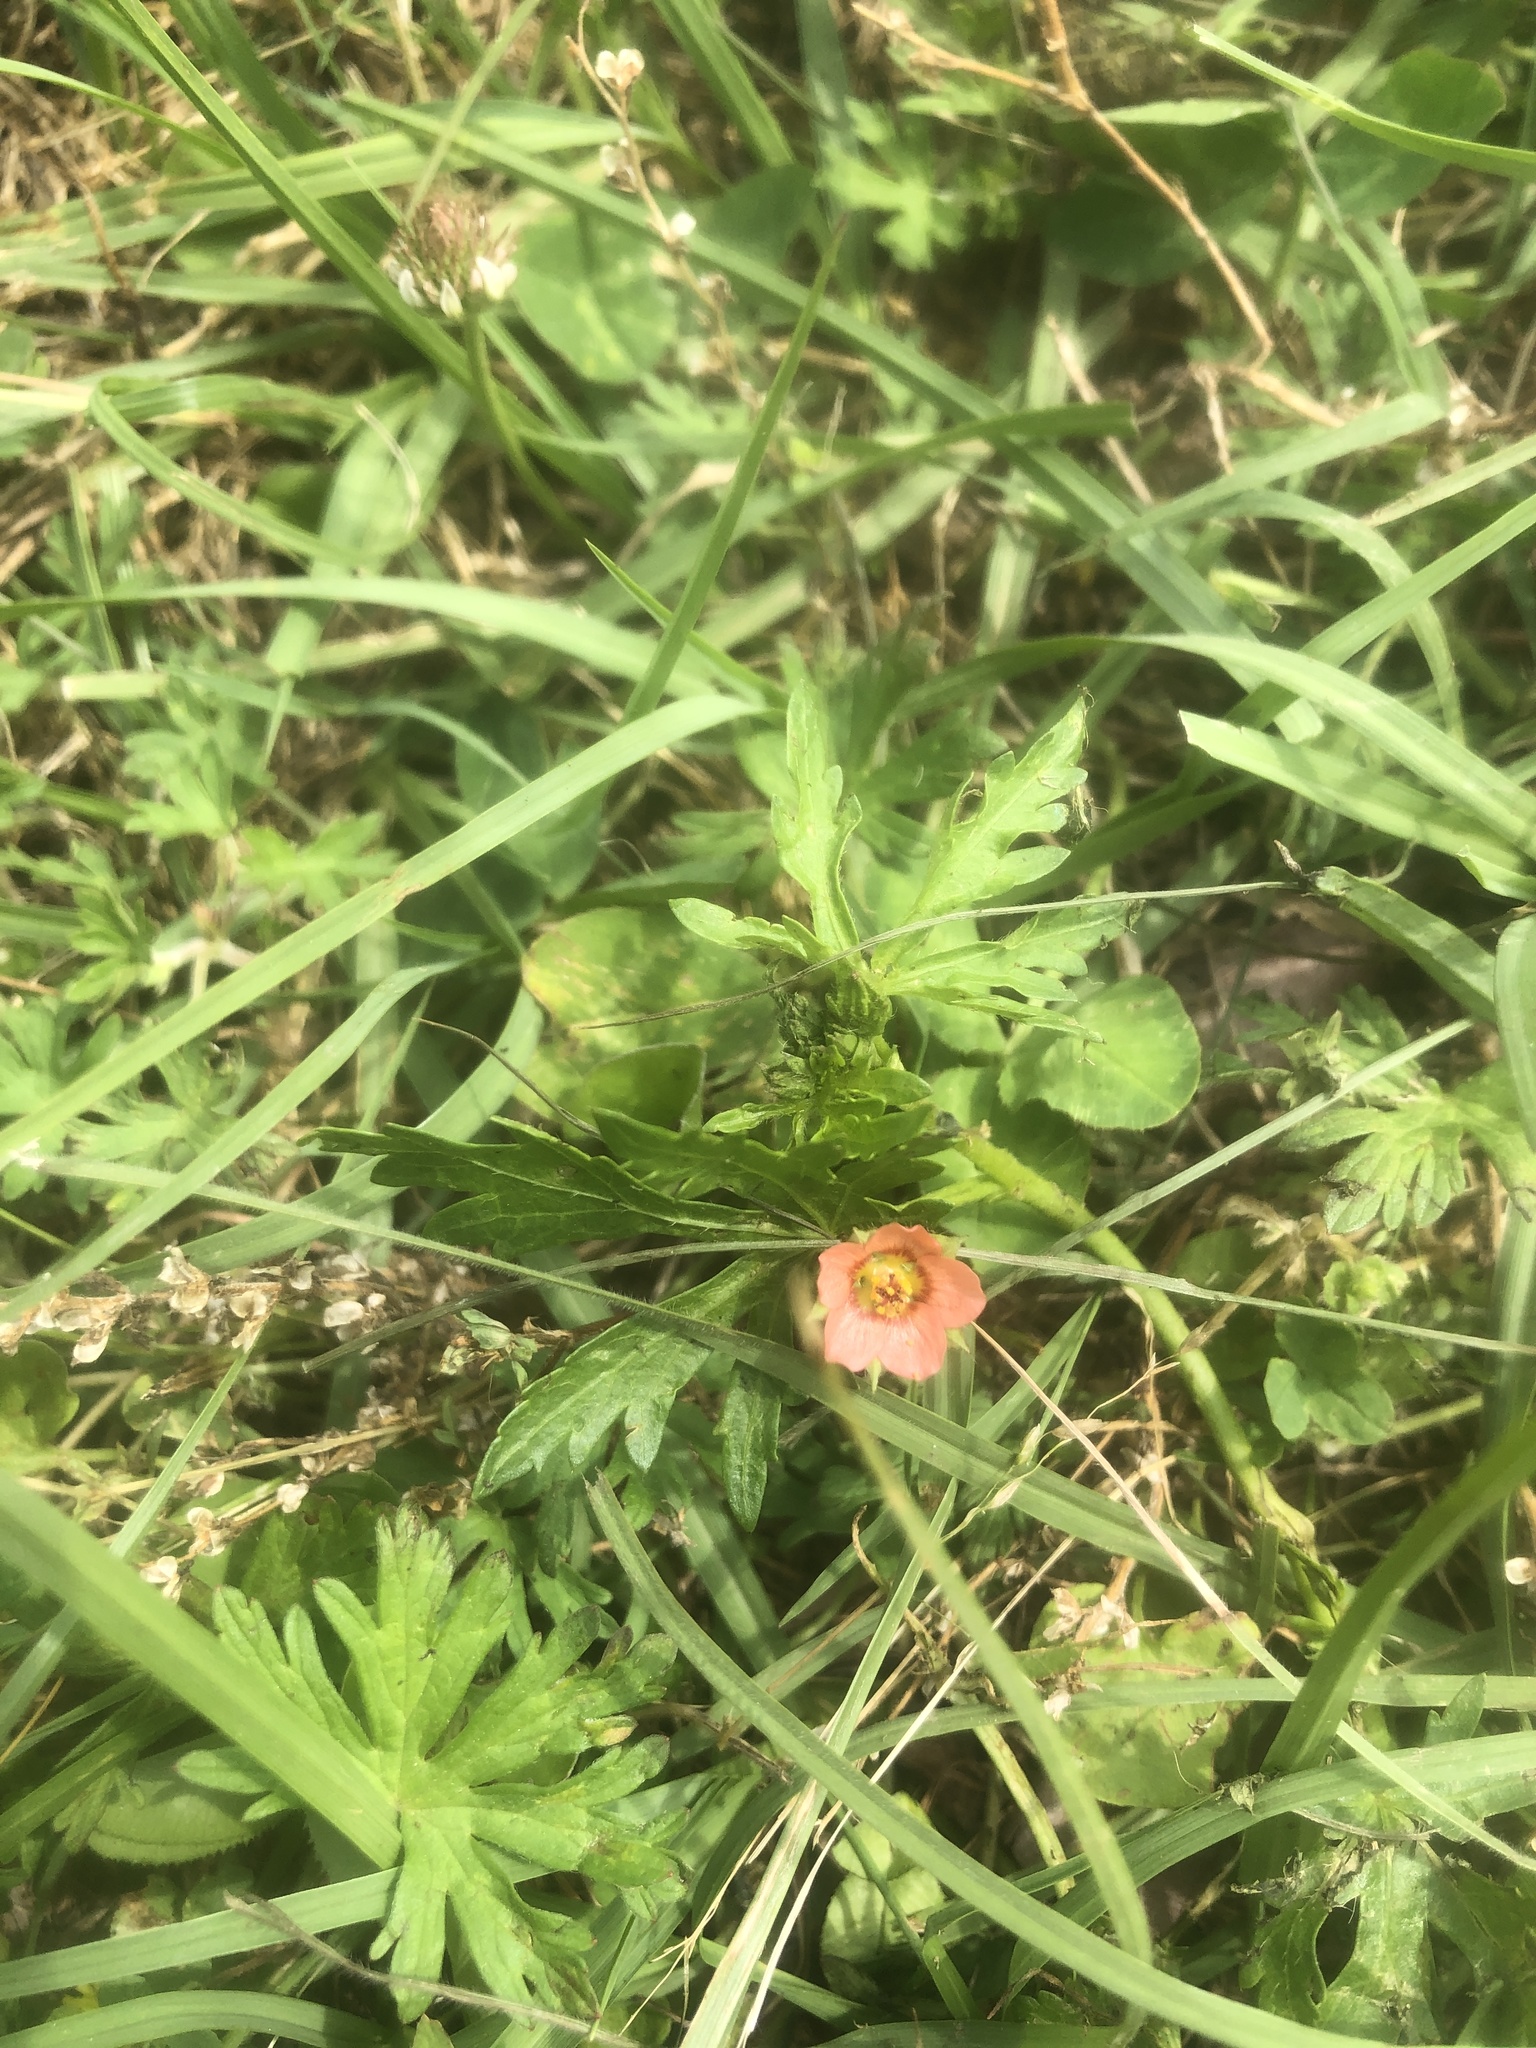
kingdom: Plantae
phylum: Tracheophyta
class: Magnoliopsida
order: Malvales
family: Malvaceae
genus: Modiola
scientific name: Modiola caroliniana
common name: Carolina bristlemallow
